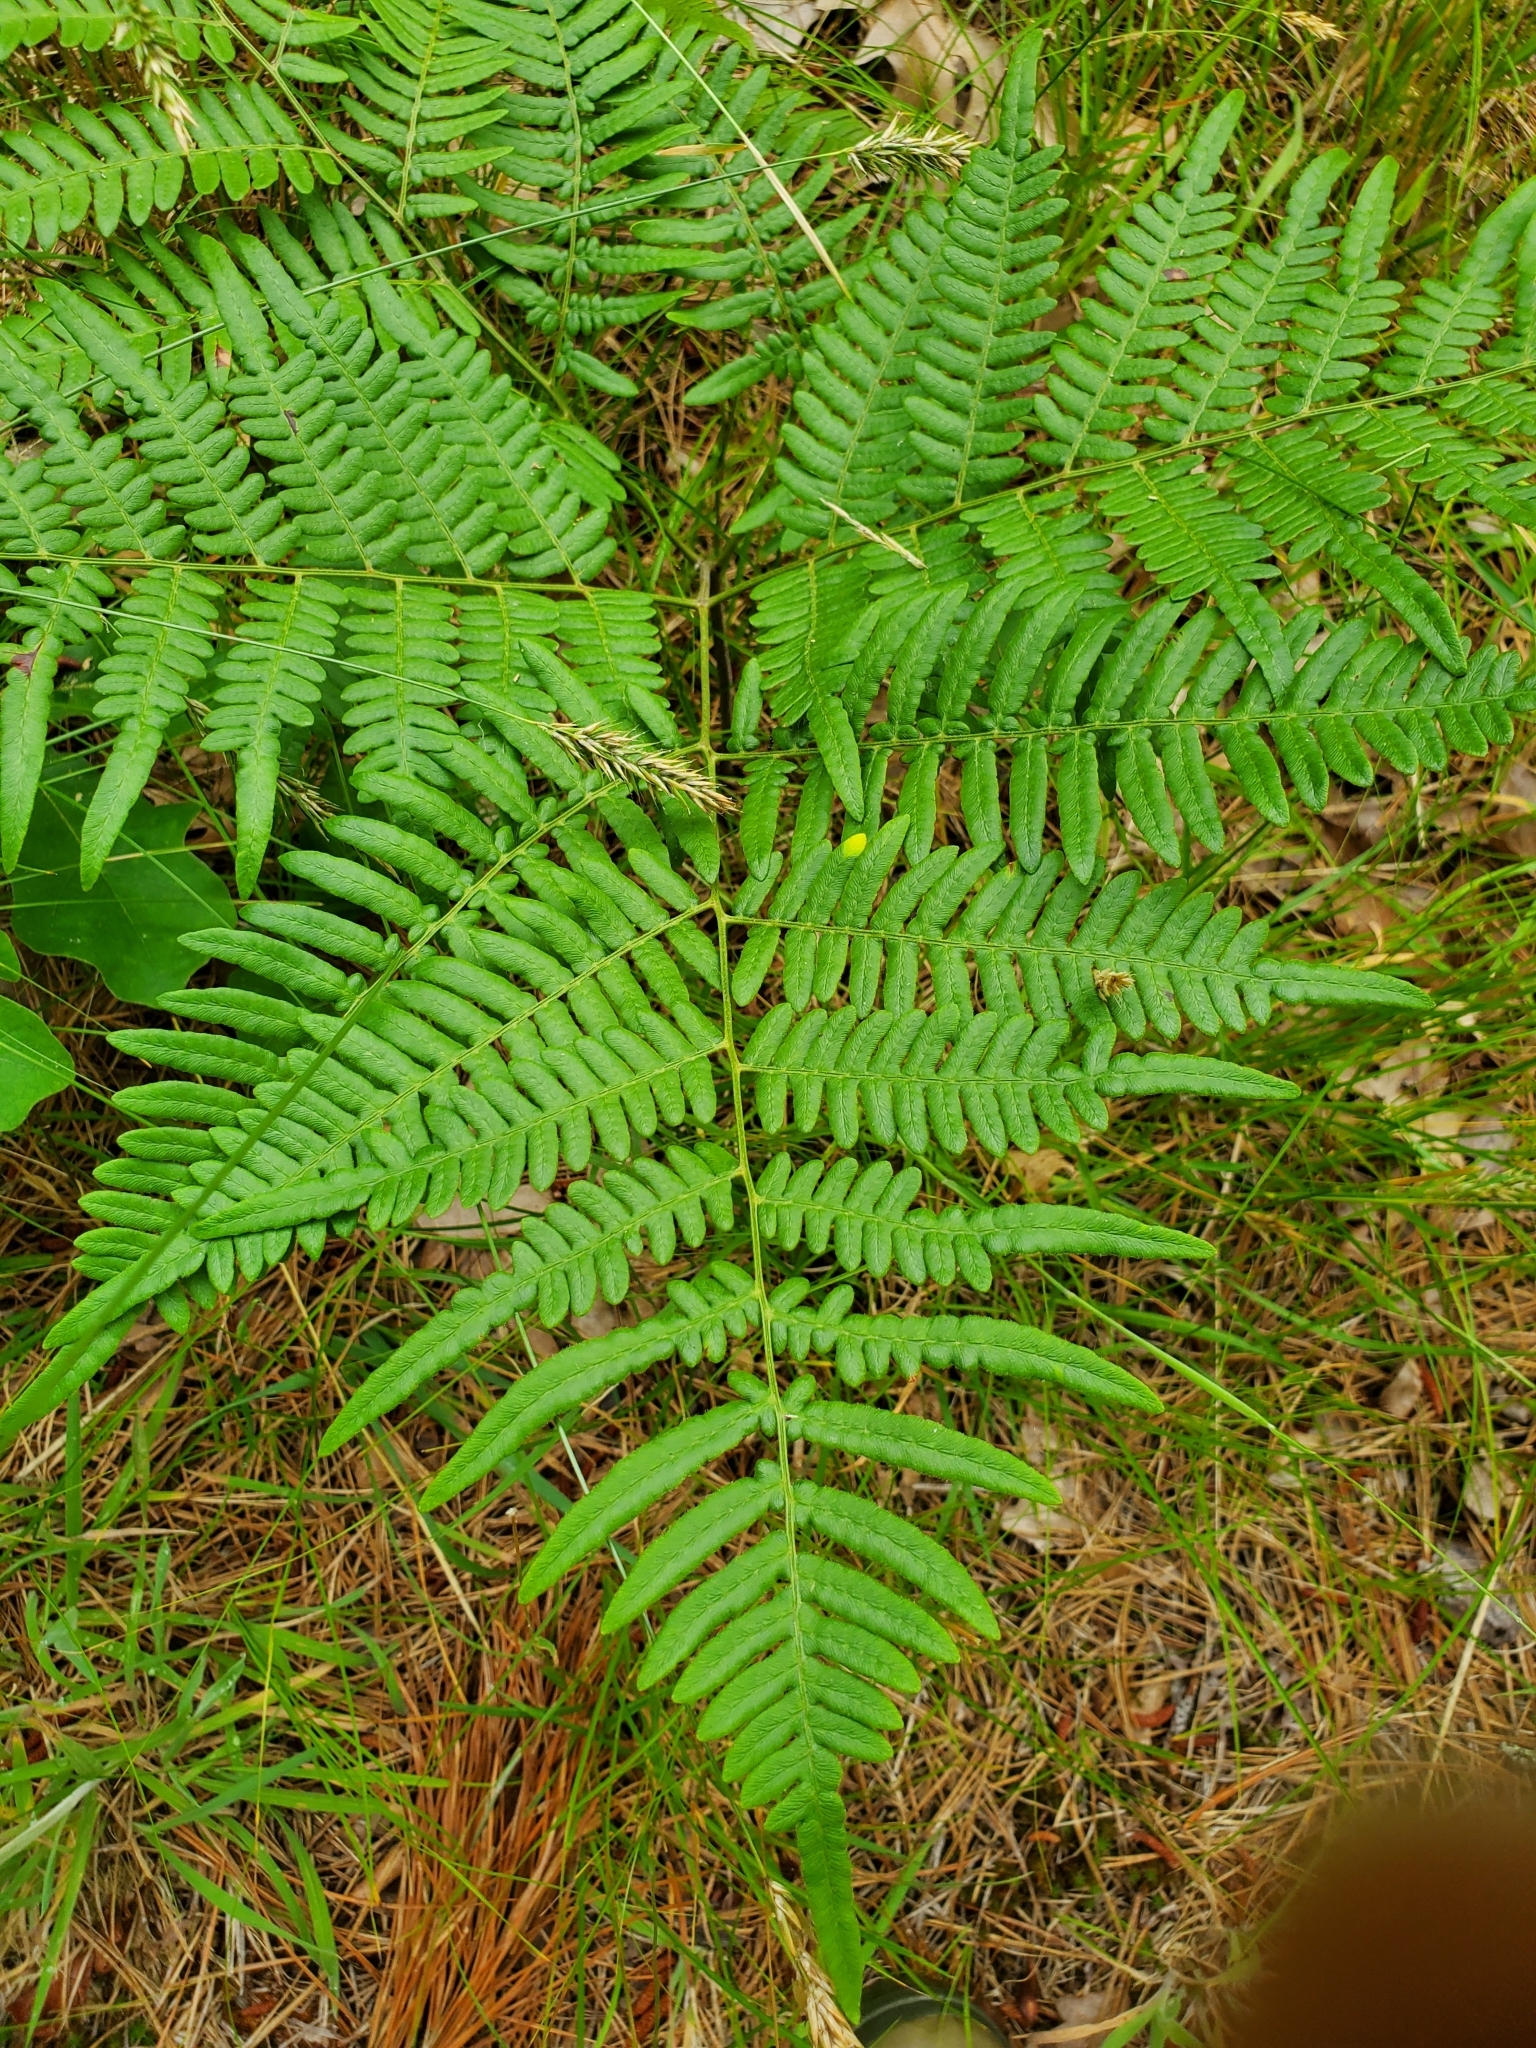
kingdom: Plantae
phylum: Tracheophyta
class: Polypodiopsida
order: Polypodiales
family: Dennstaedtiaceae
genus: Pteridium
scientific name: Pteridium aquilinum
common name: Bracken
